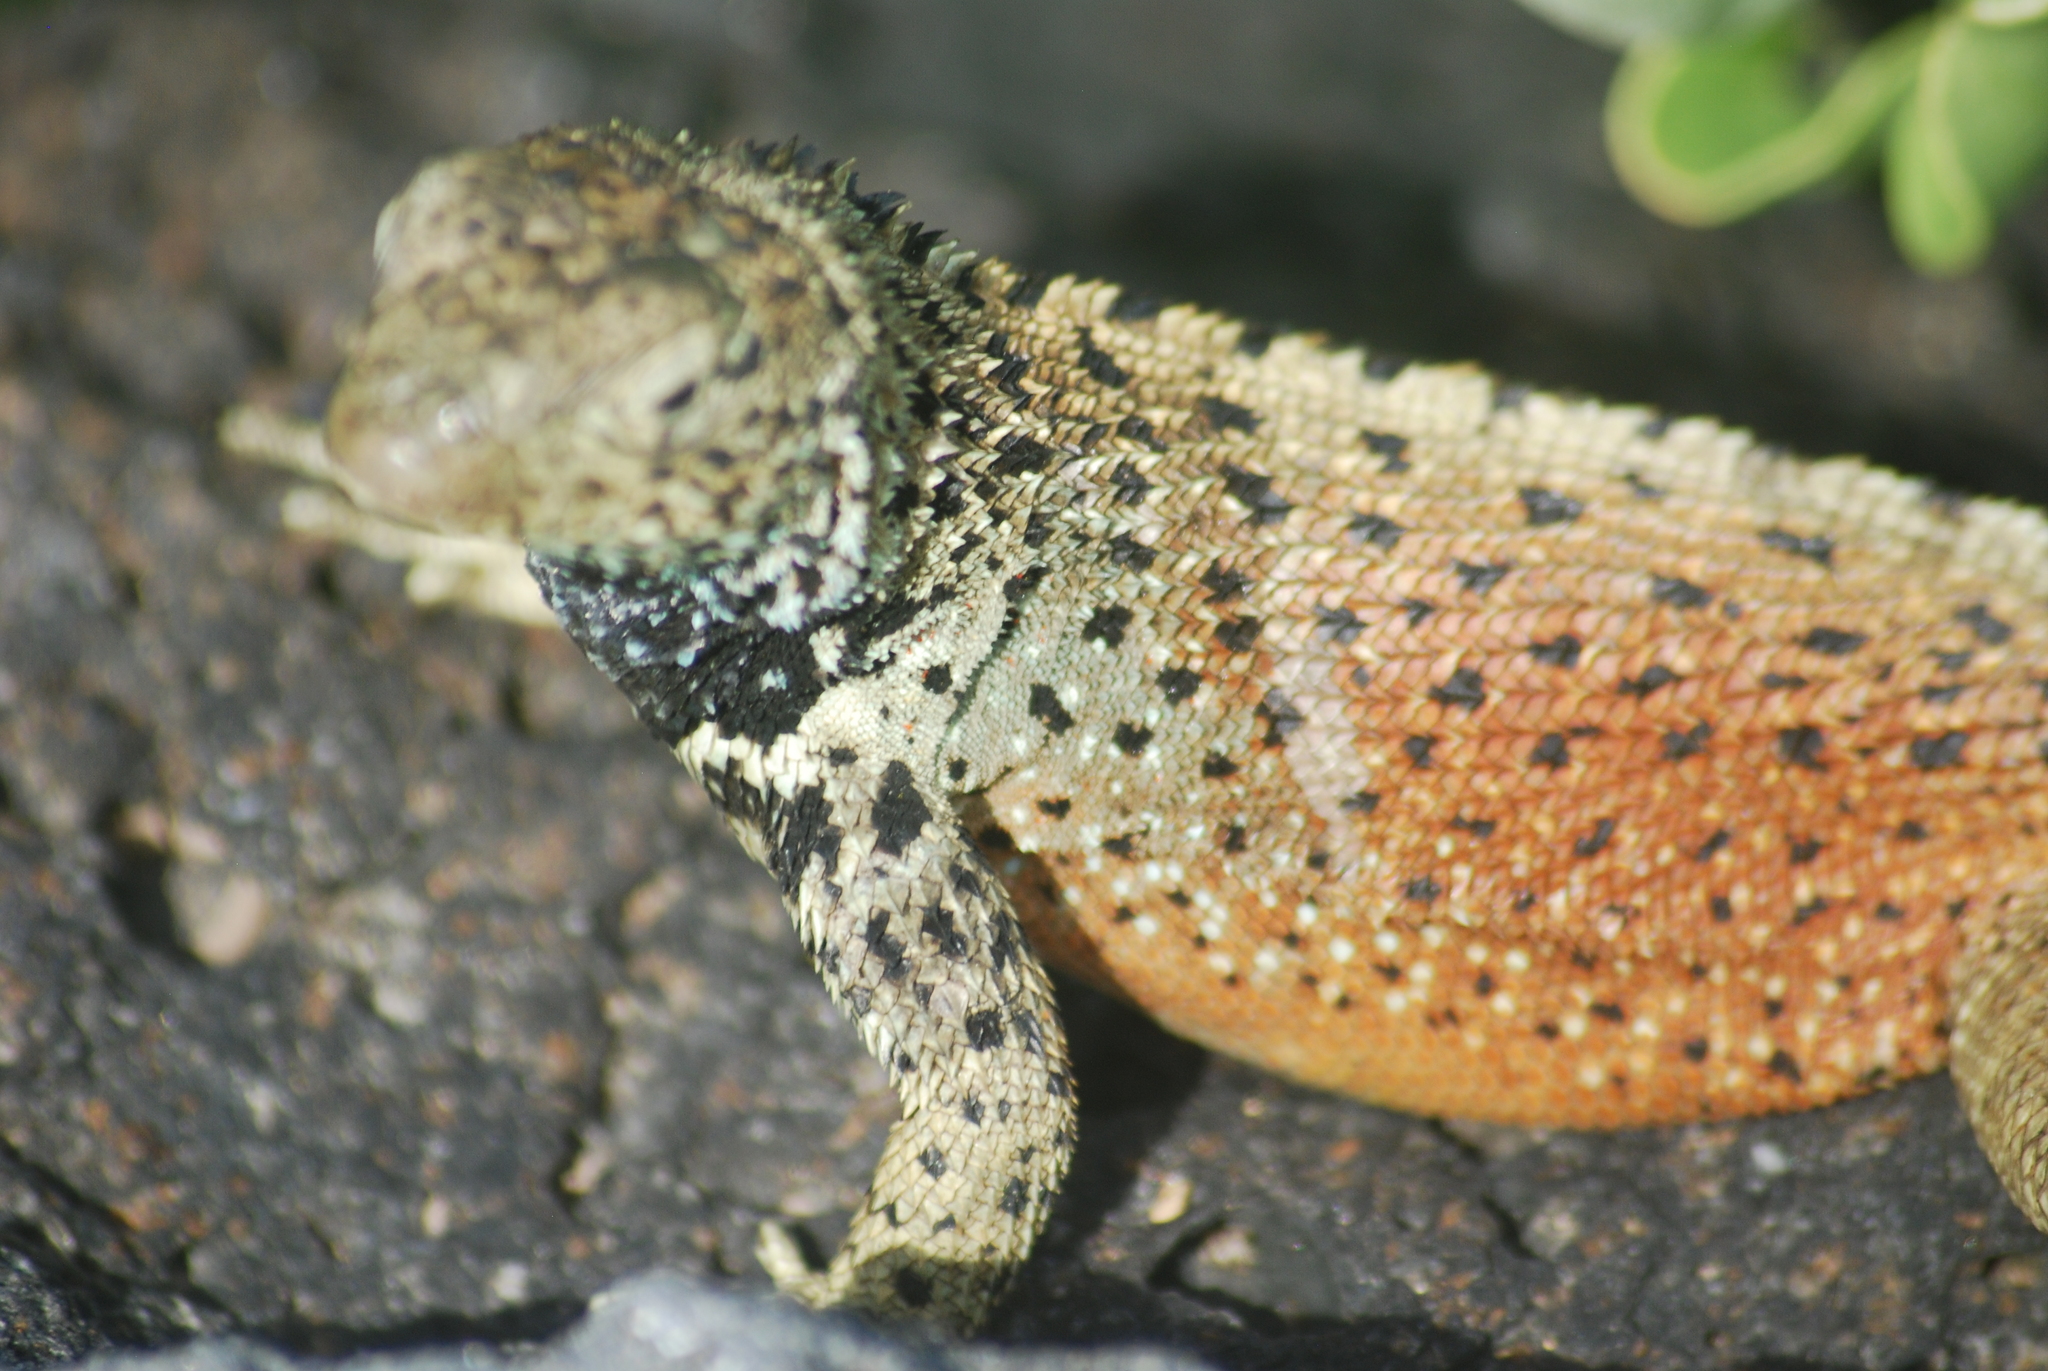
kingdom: Animalia
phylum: Chordata
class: Squamata
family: Tropiduridae
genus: Microlophus
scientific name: Microlophus delanonis
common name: Hood lava lizard
